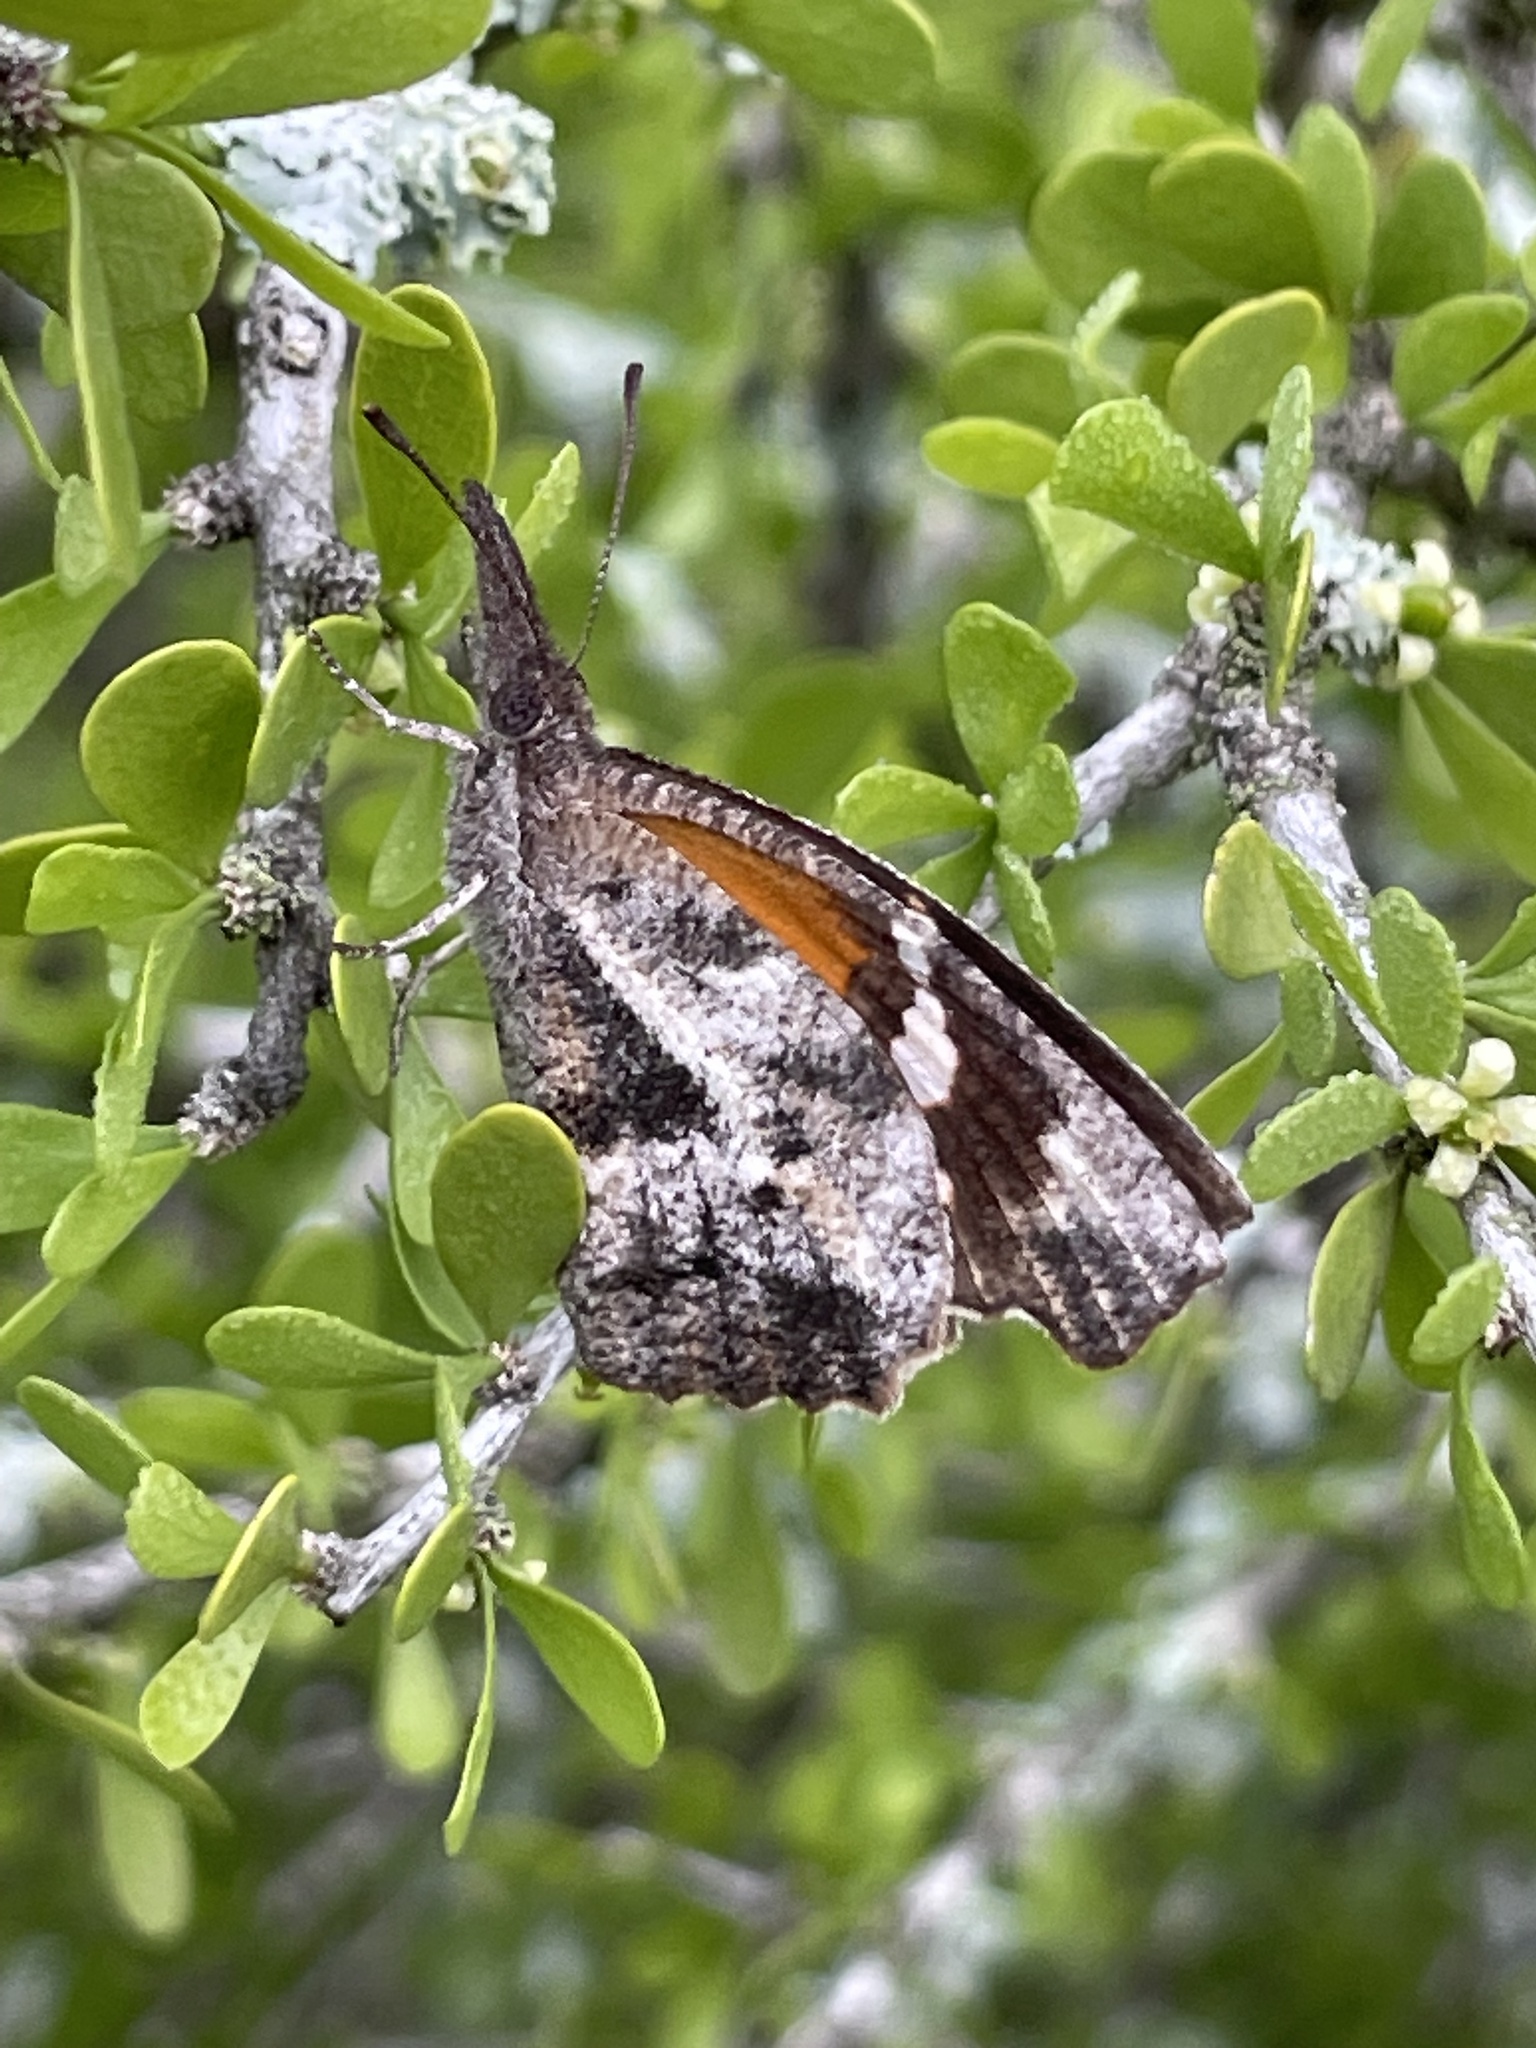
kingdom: Animalia
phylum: Arthropoda
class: Insecta
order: Lepidoptera
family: Nymphalidae
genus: Libytheana
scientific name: Libytheana carinenta
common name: American snout
